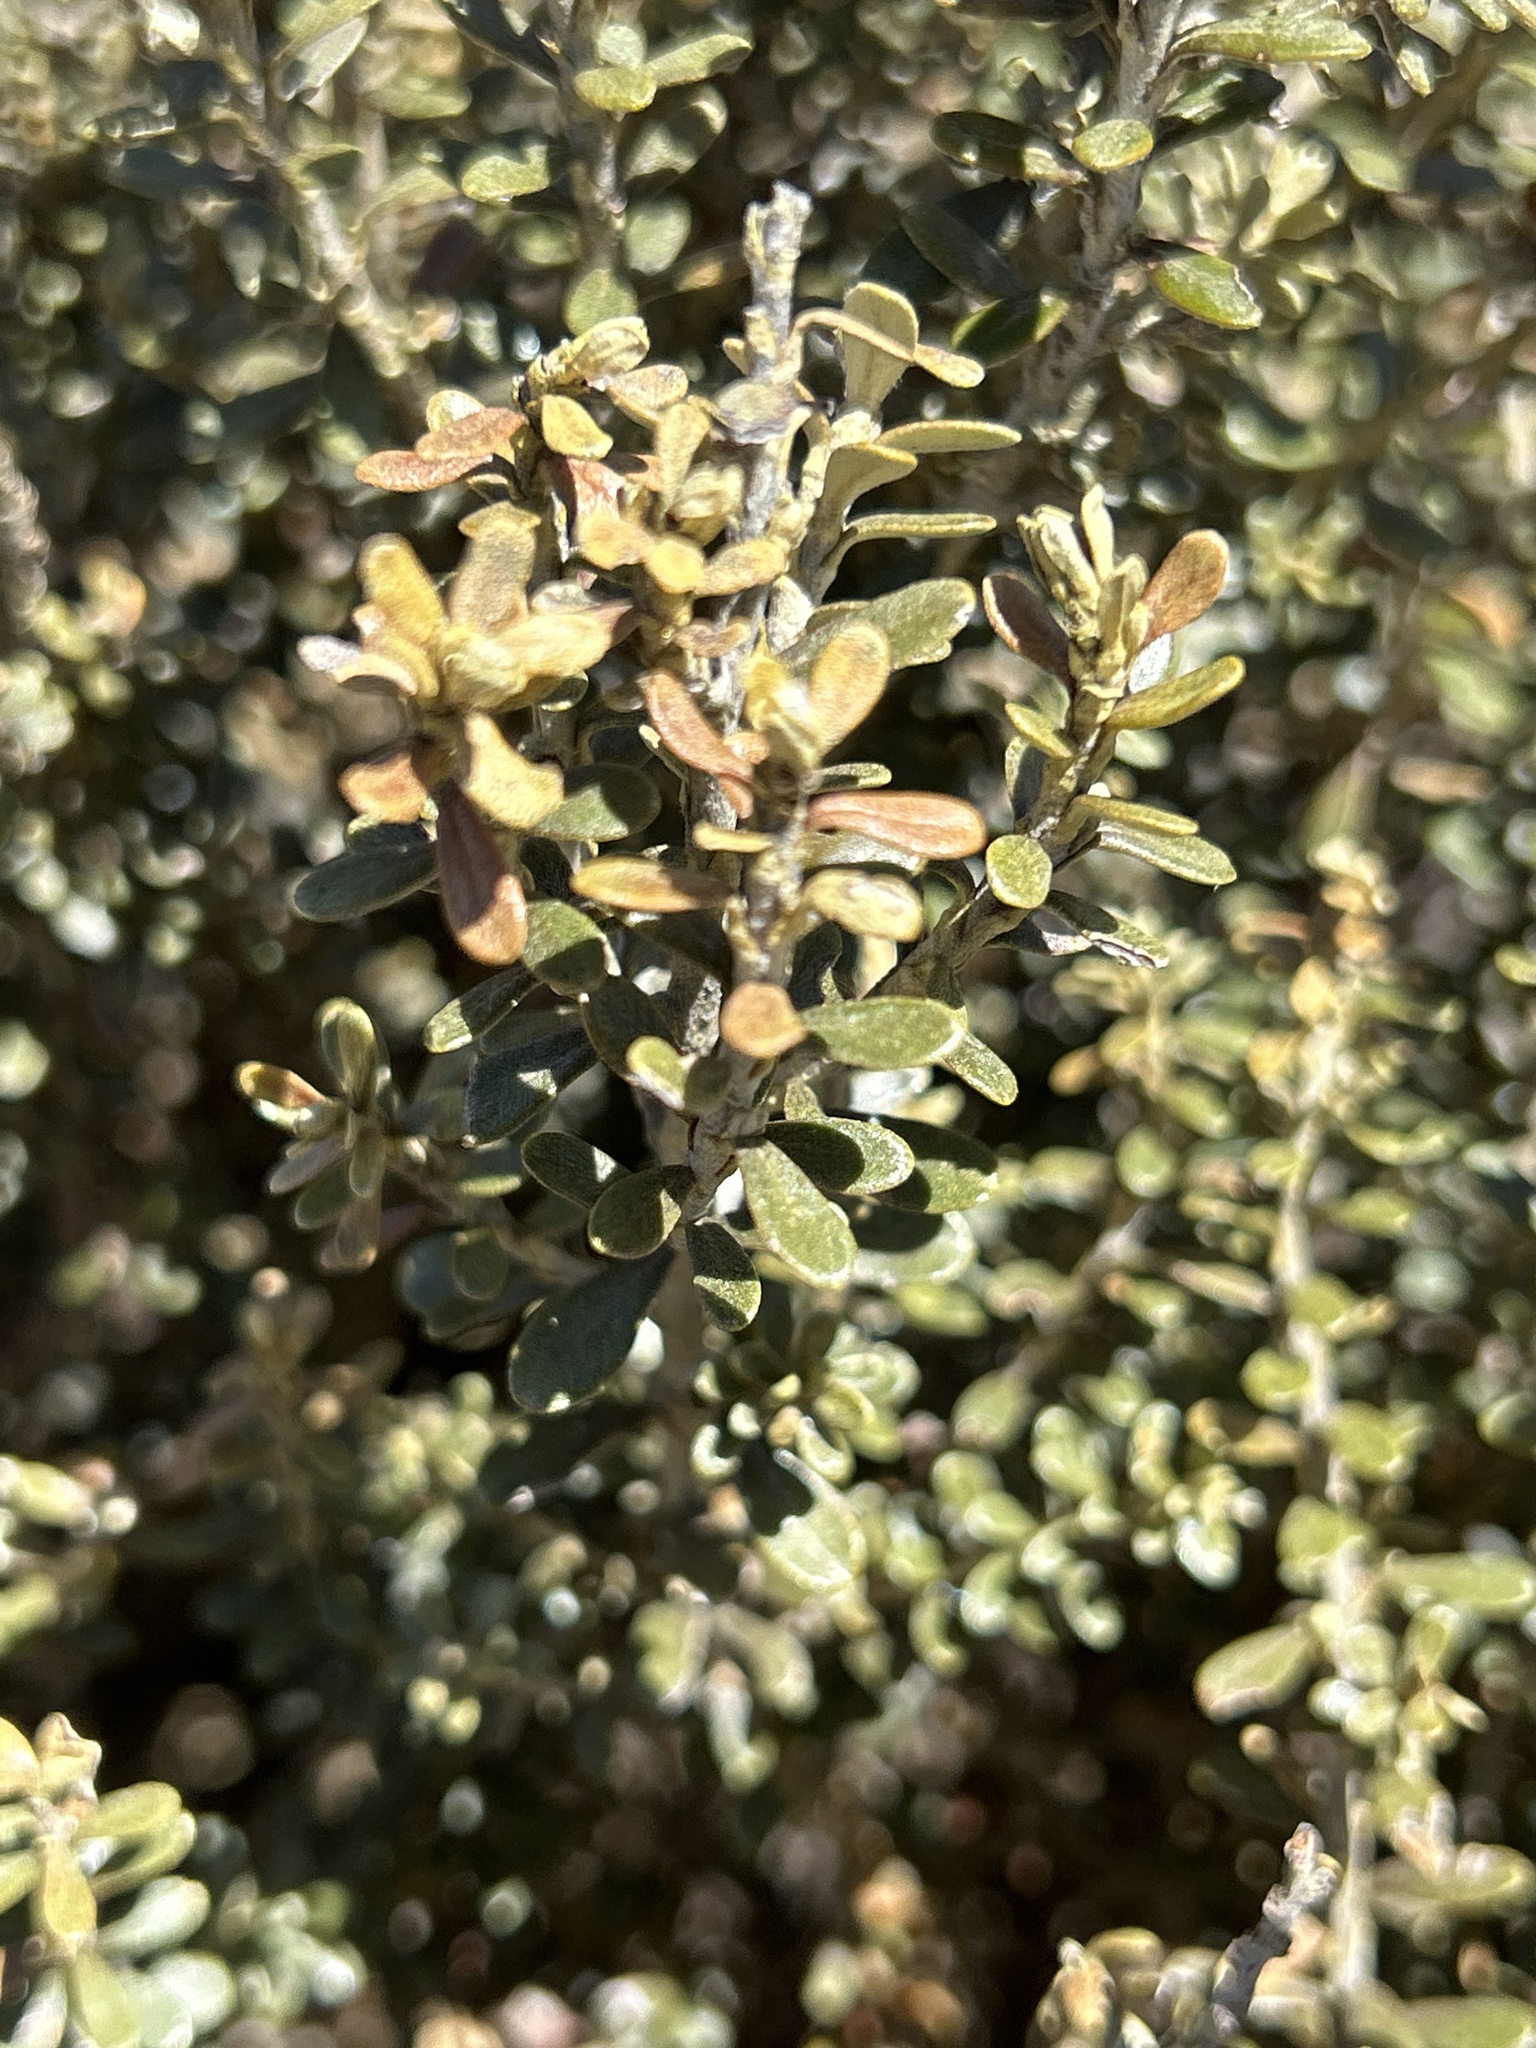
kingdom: Plantae
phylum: Tracheophyta
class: Magnoliopsida
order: Asterales
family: Asteraceae
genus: Ozothamnus
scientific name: Ozothamnus leptophyllus
